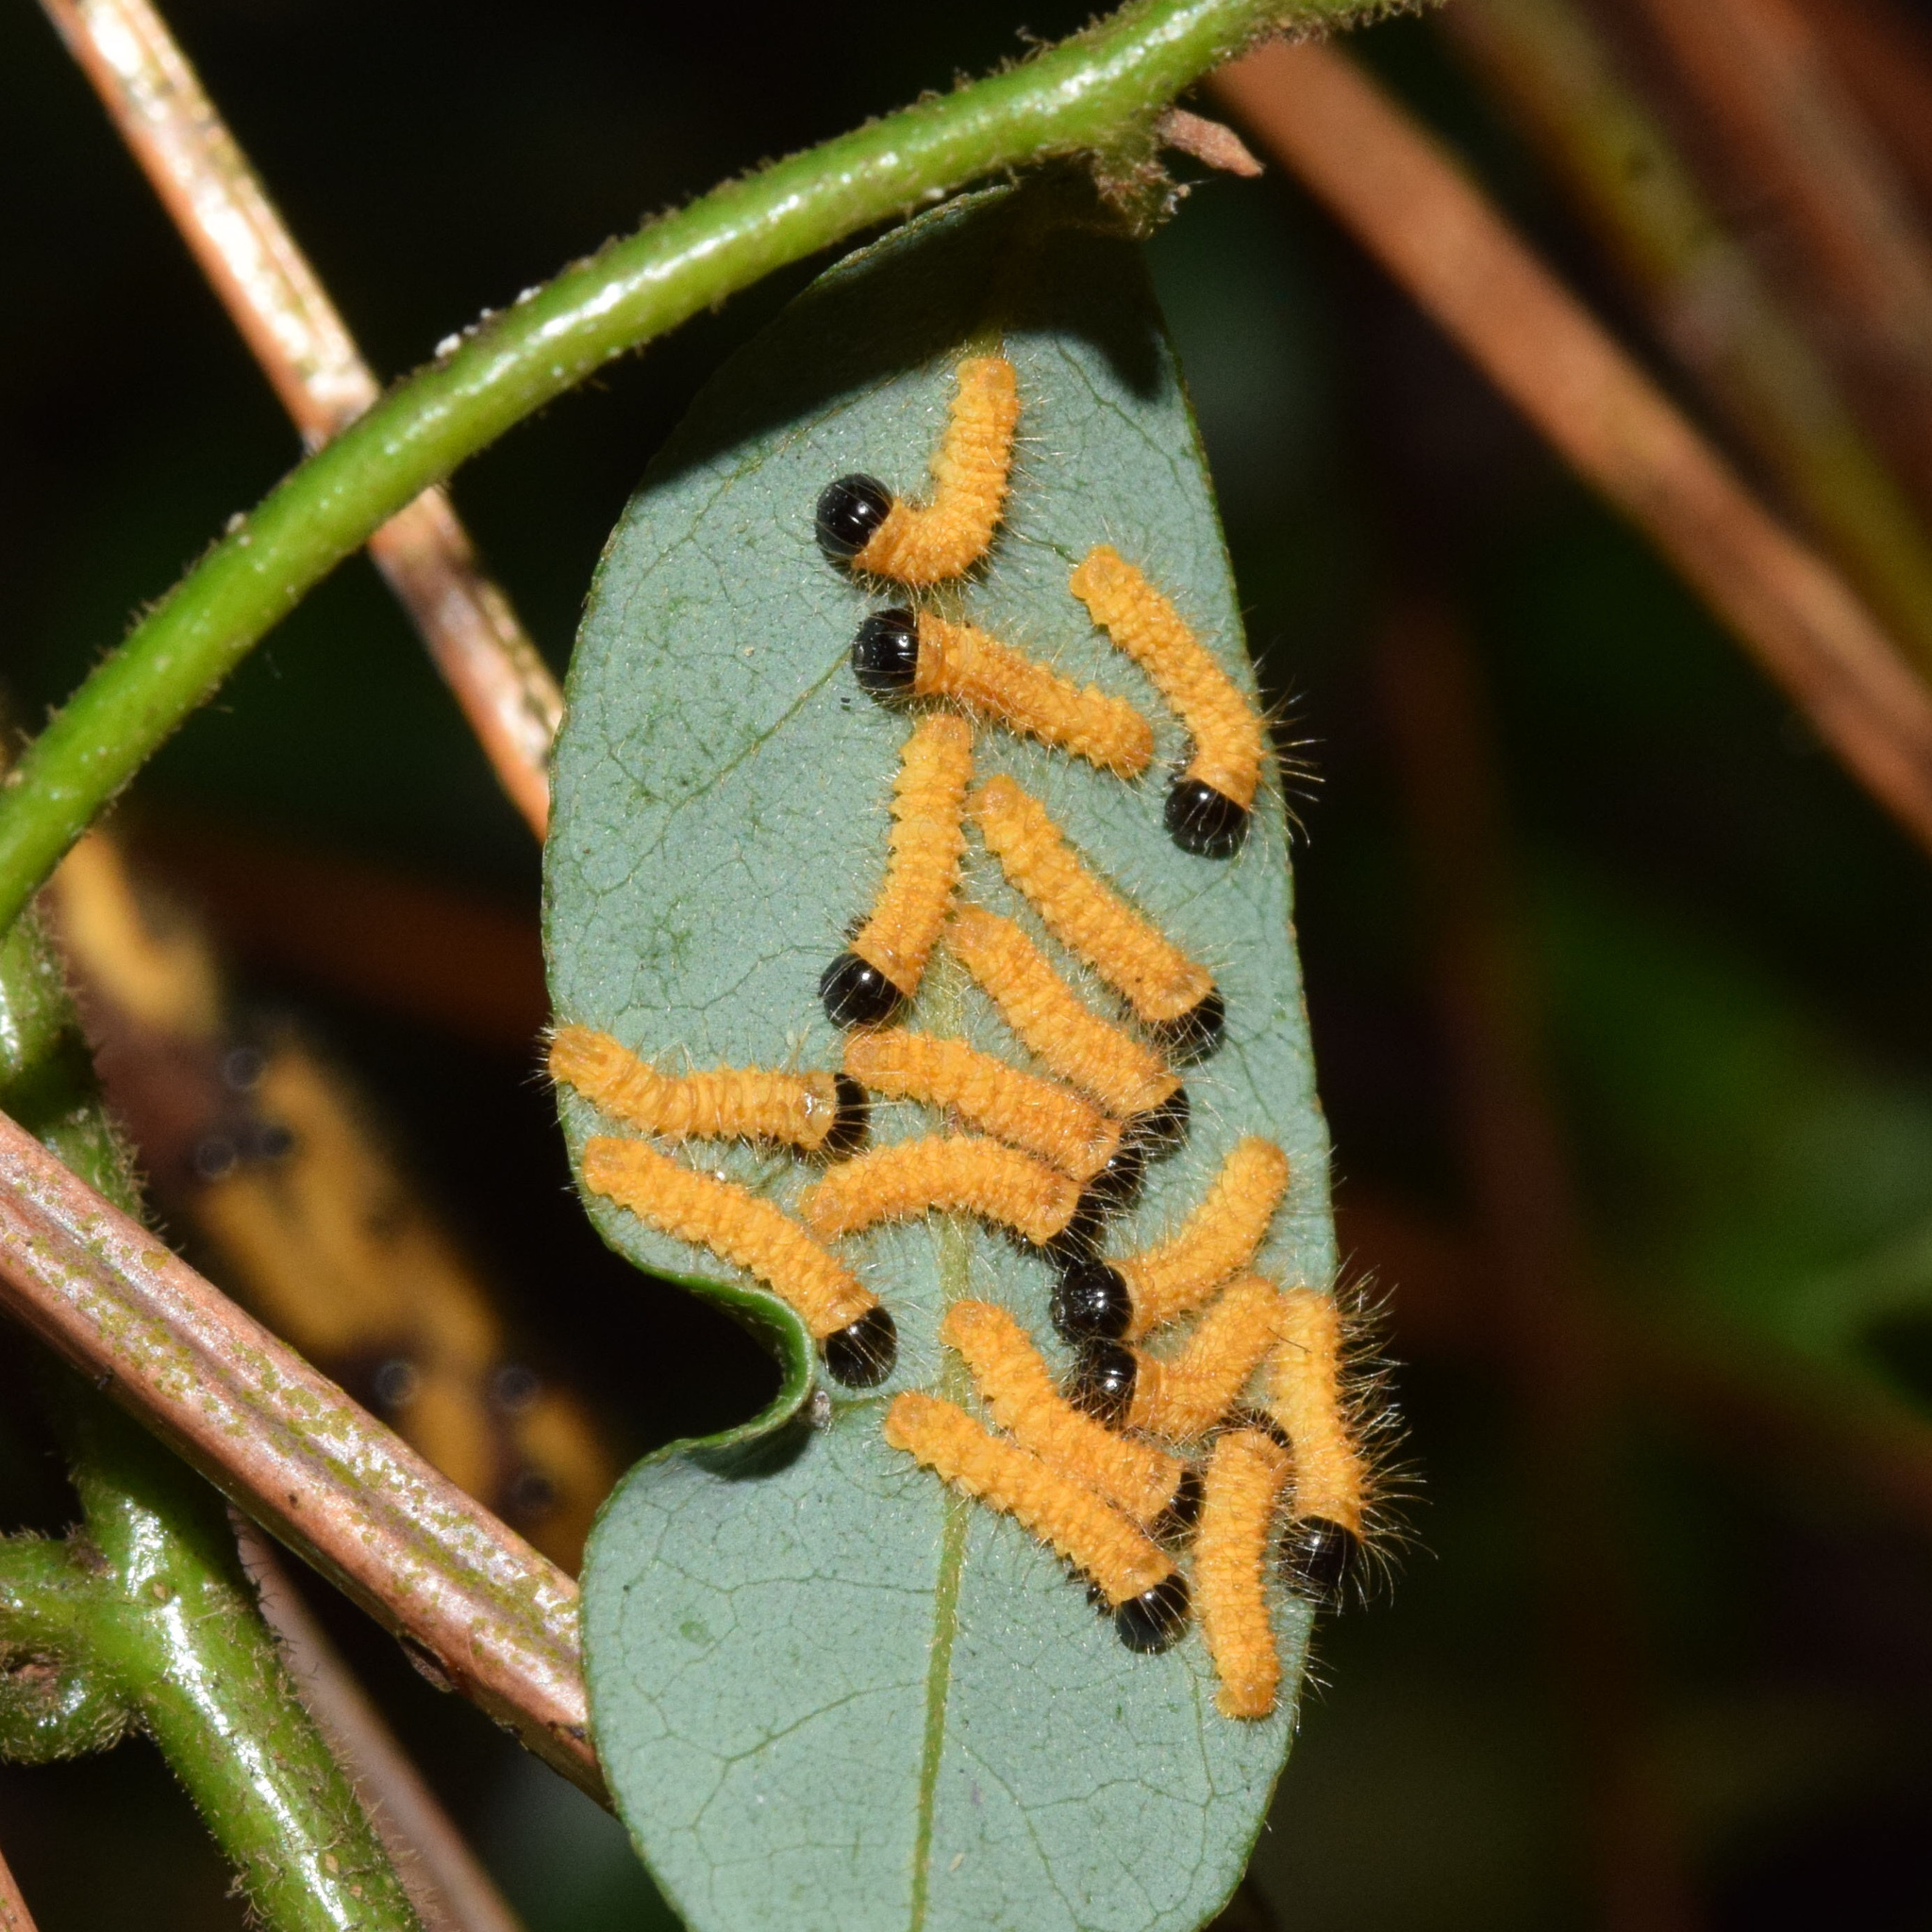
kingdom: Animalia
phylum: Arthropoda
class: Insecta
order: Lepidoptera
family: Saturniidae
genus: Nudaurelia
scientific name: Nudaurelia wahlbergi
